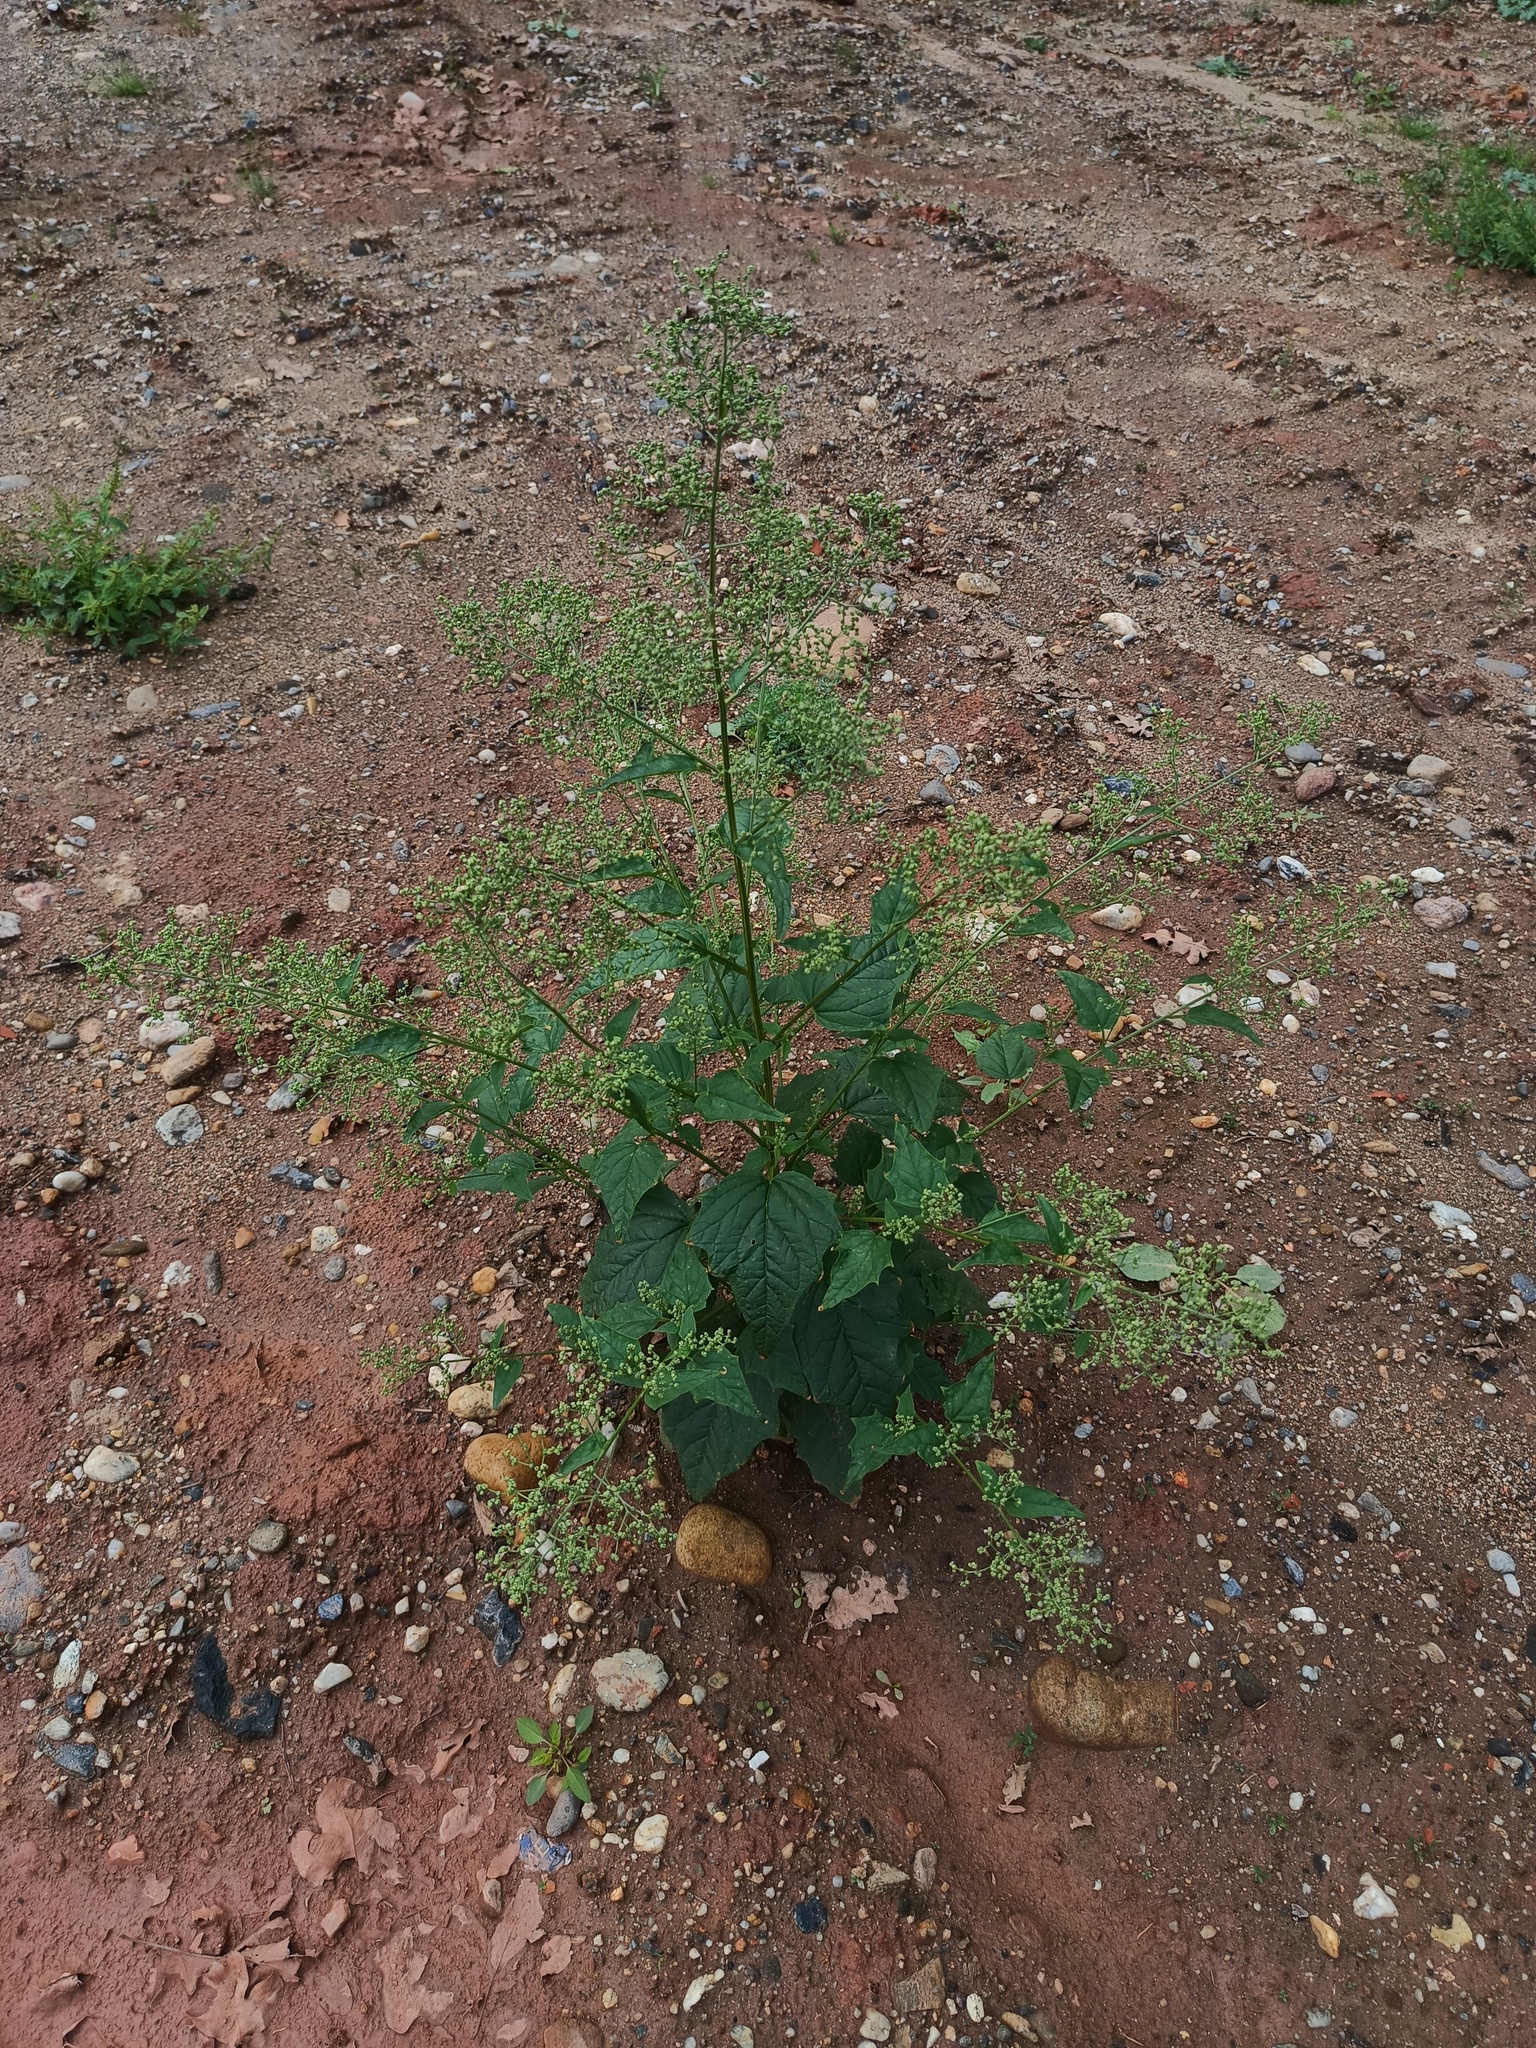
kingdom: Plantae
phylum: Tracheophyta
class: Magnoliopsida
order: Caryophyllales
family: Amaranthaceae
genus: Chenopodiastrum
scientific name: Chenopodiastrum hybridum
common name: Mapleleaf goosefoot
